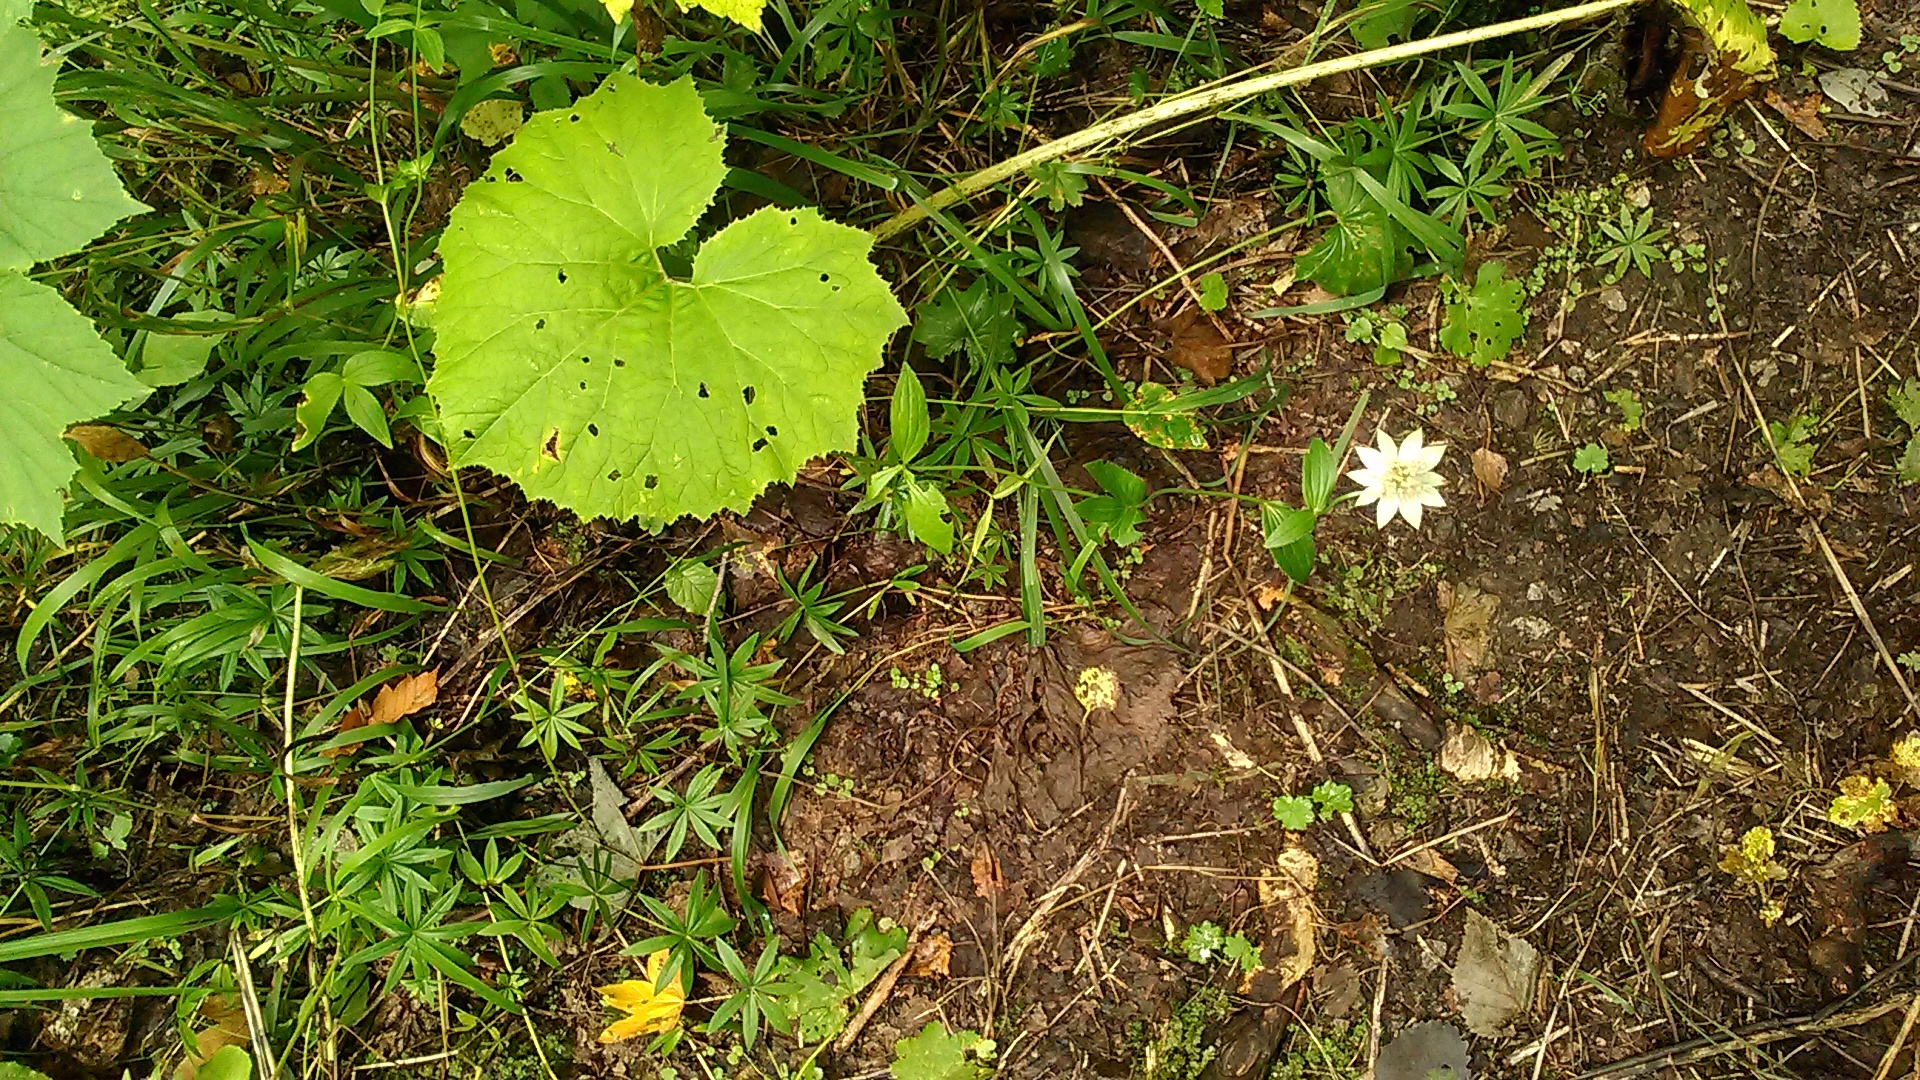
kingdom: Plantae
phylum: Tracheophyta
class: Magnoliopsida
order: Apiales
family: Apiaceae
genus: Astrantia
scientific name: Astrantia maxima
